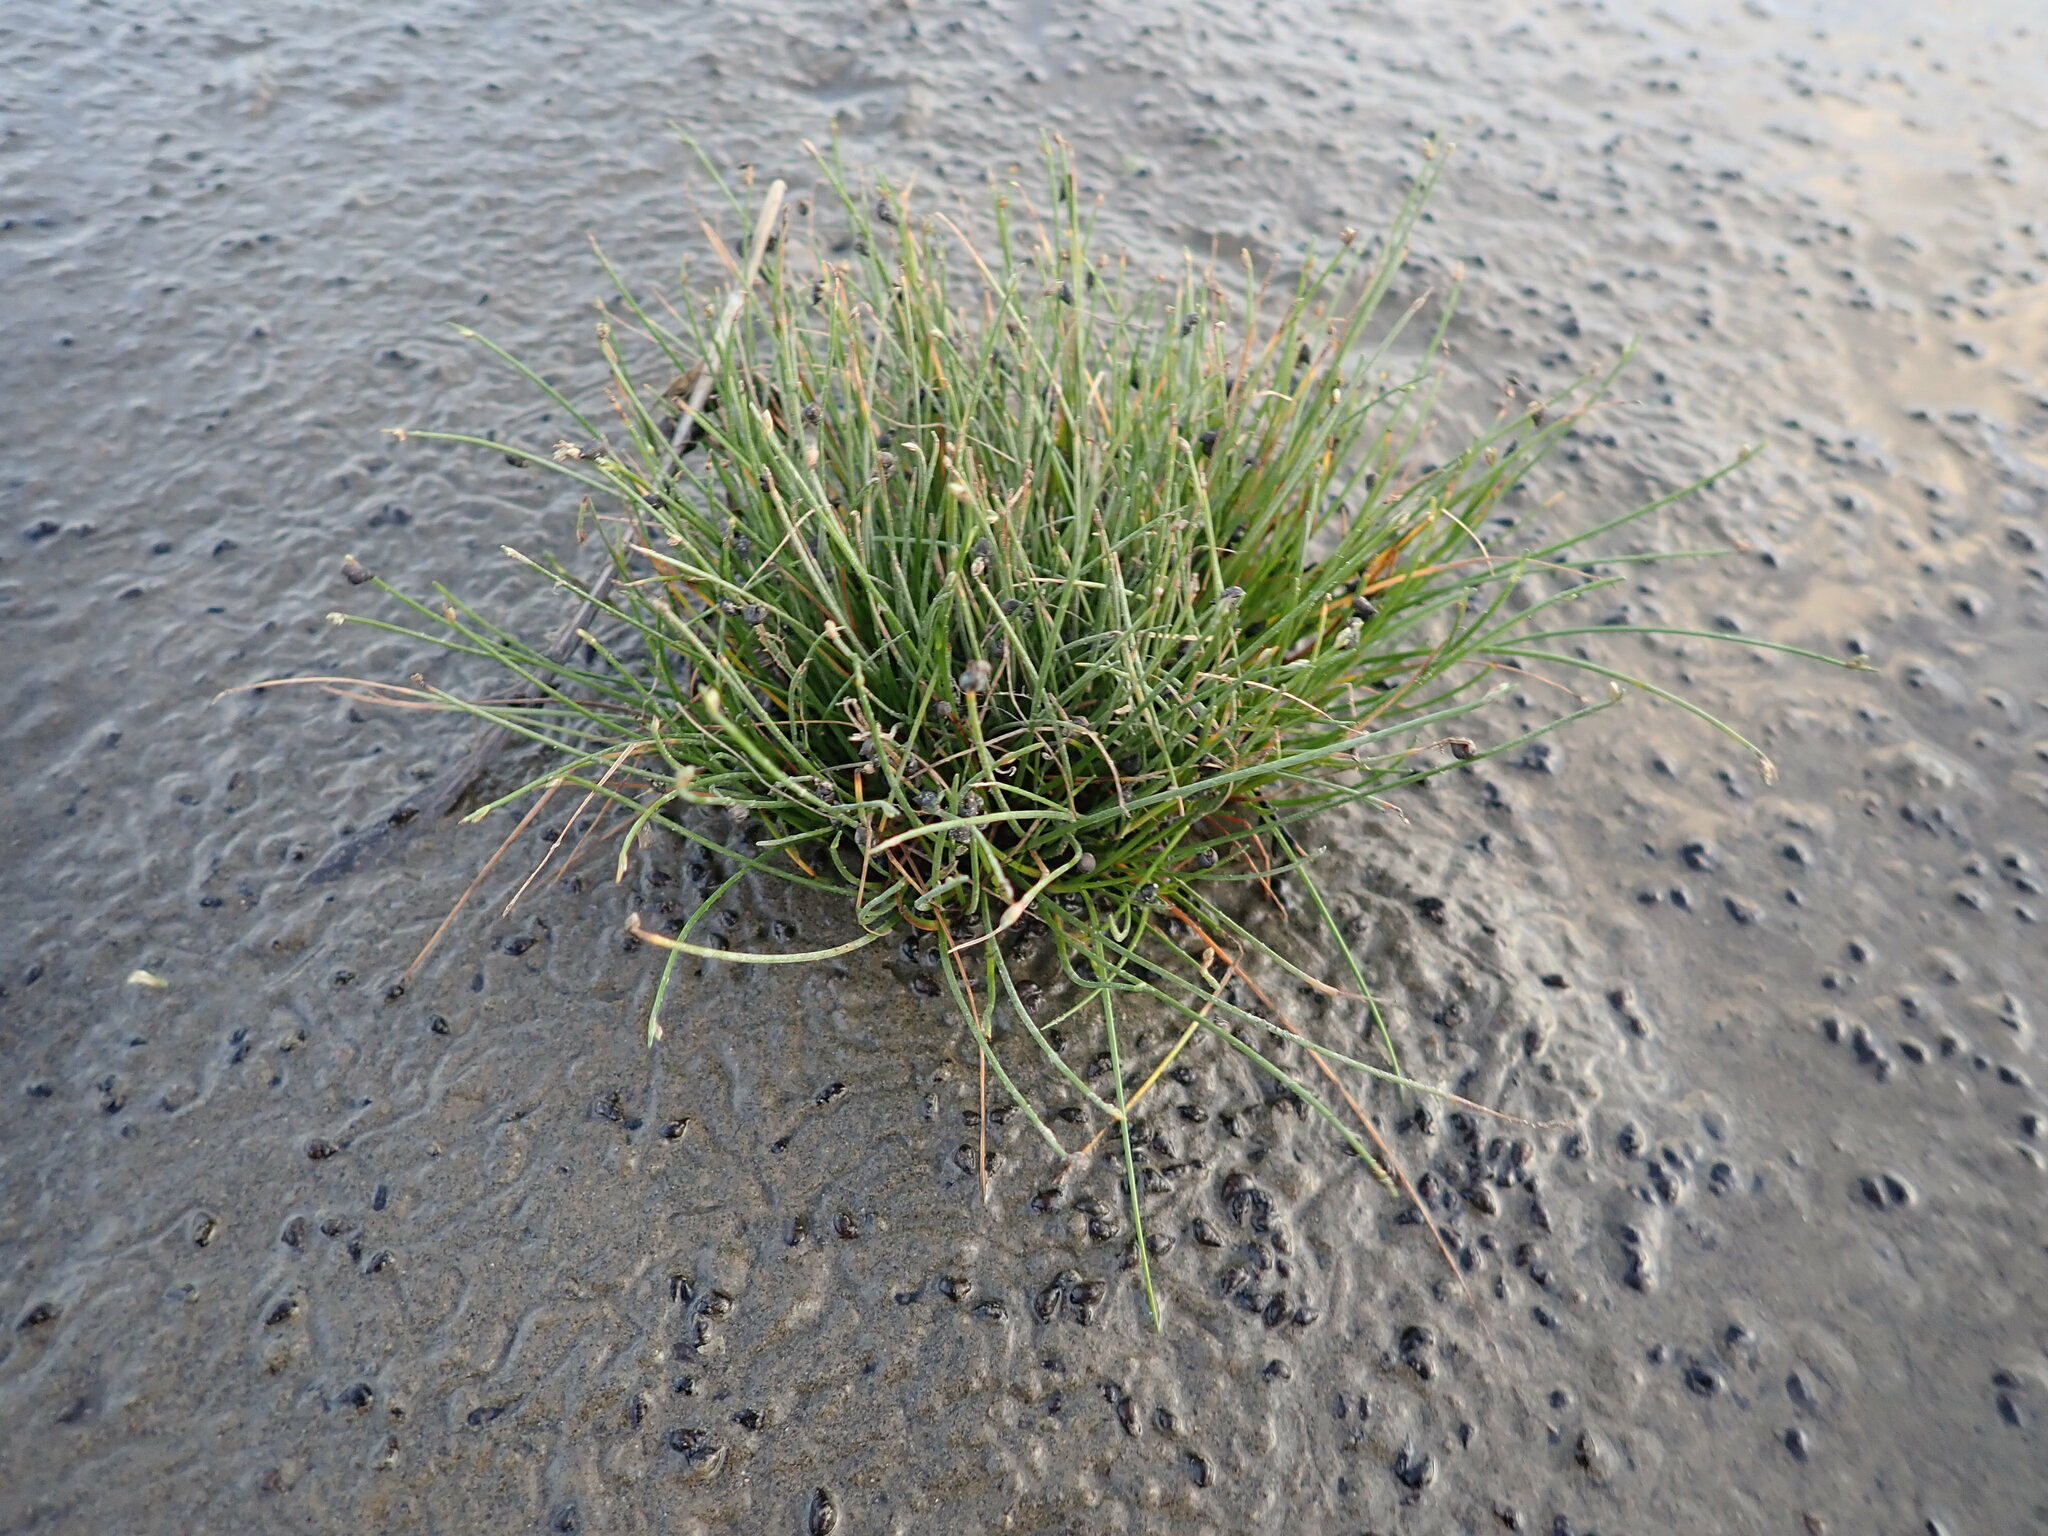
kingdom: Plantae
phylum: Tracheophyta
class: Liliopsida
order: Poales
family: Cyperaceae
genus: Isolepis
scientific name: Isolepis cernua
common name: Slender club-rush
